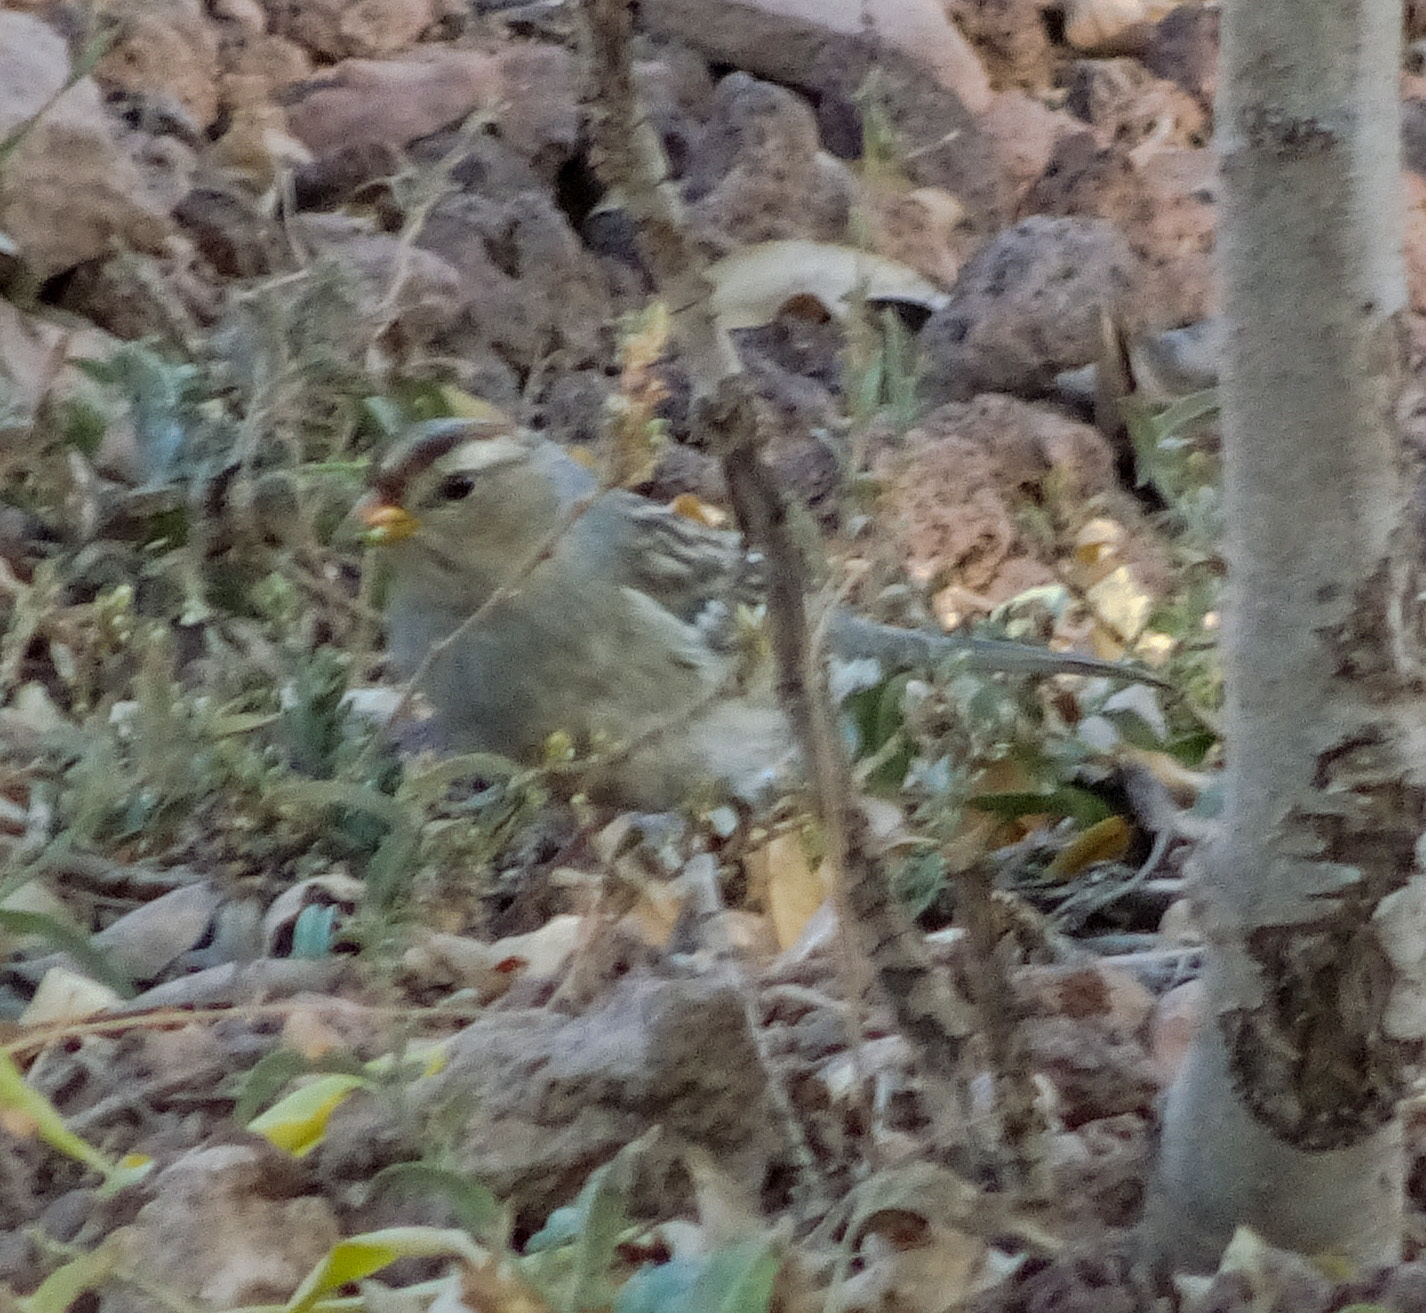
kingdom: Animalia
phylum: Chordata
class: Aves
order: Passeriformes
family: Passerellidae
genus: Zonotrichia
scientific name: Zonotrichia leucophrys
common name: White-crowned sparrow
